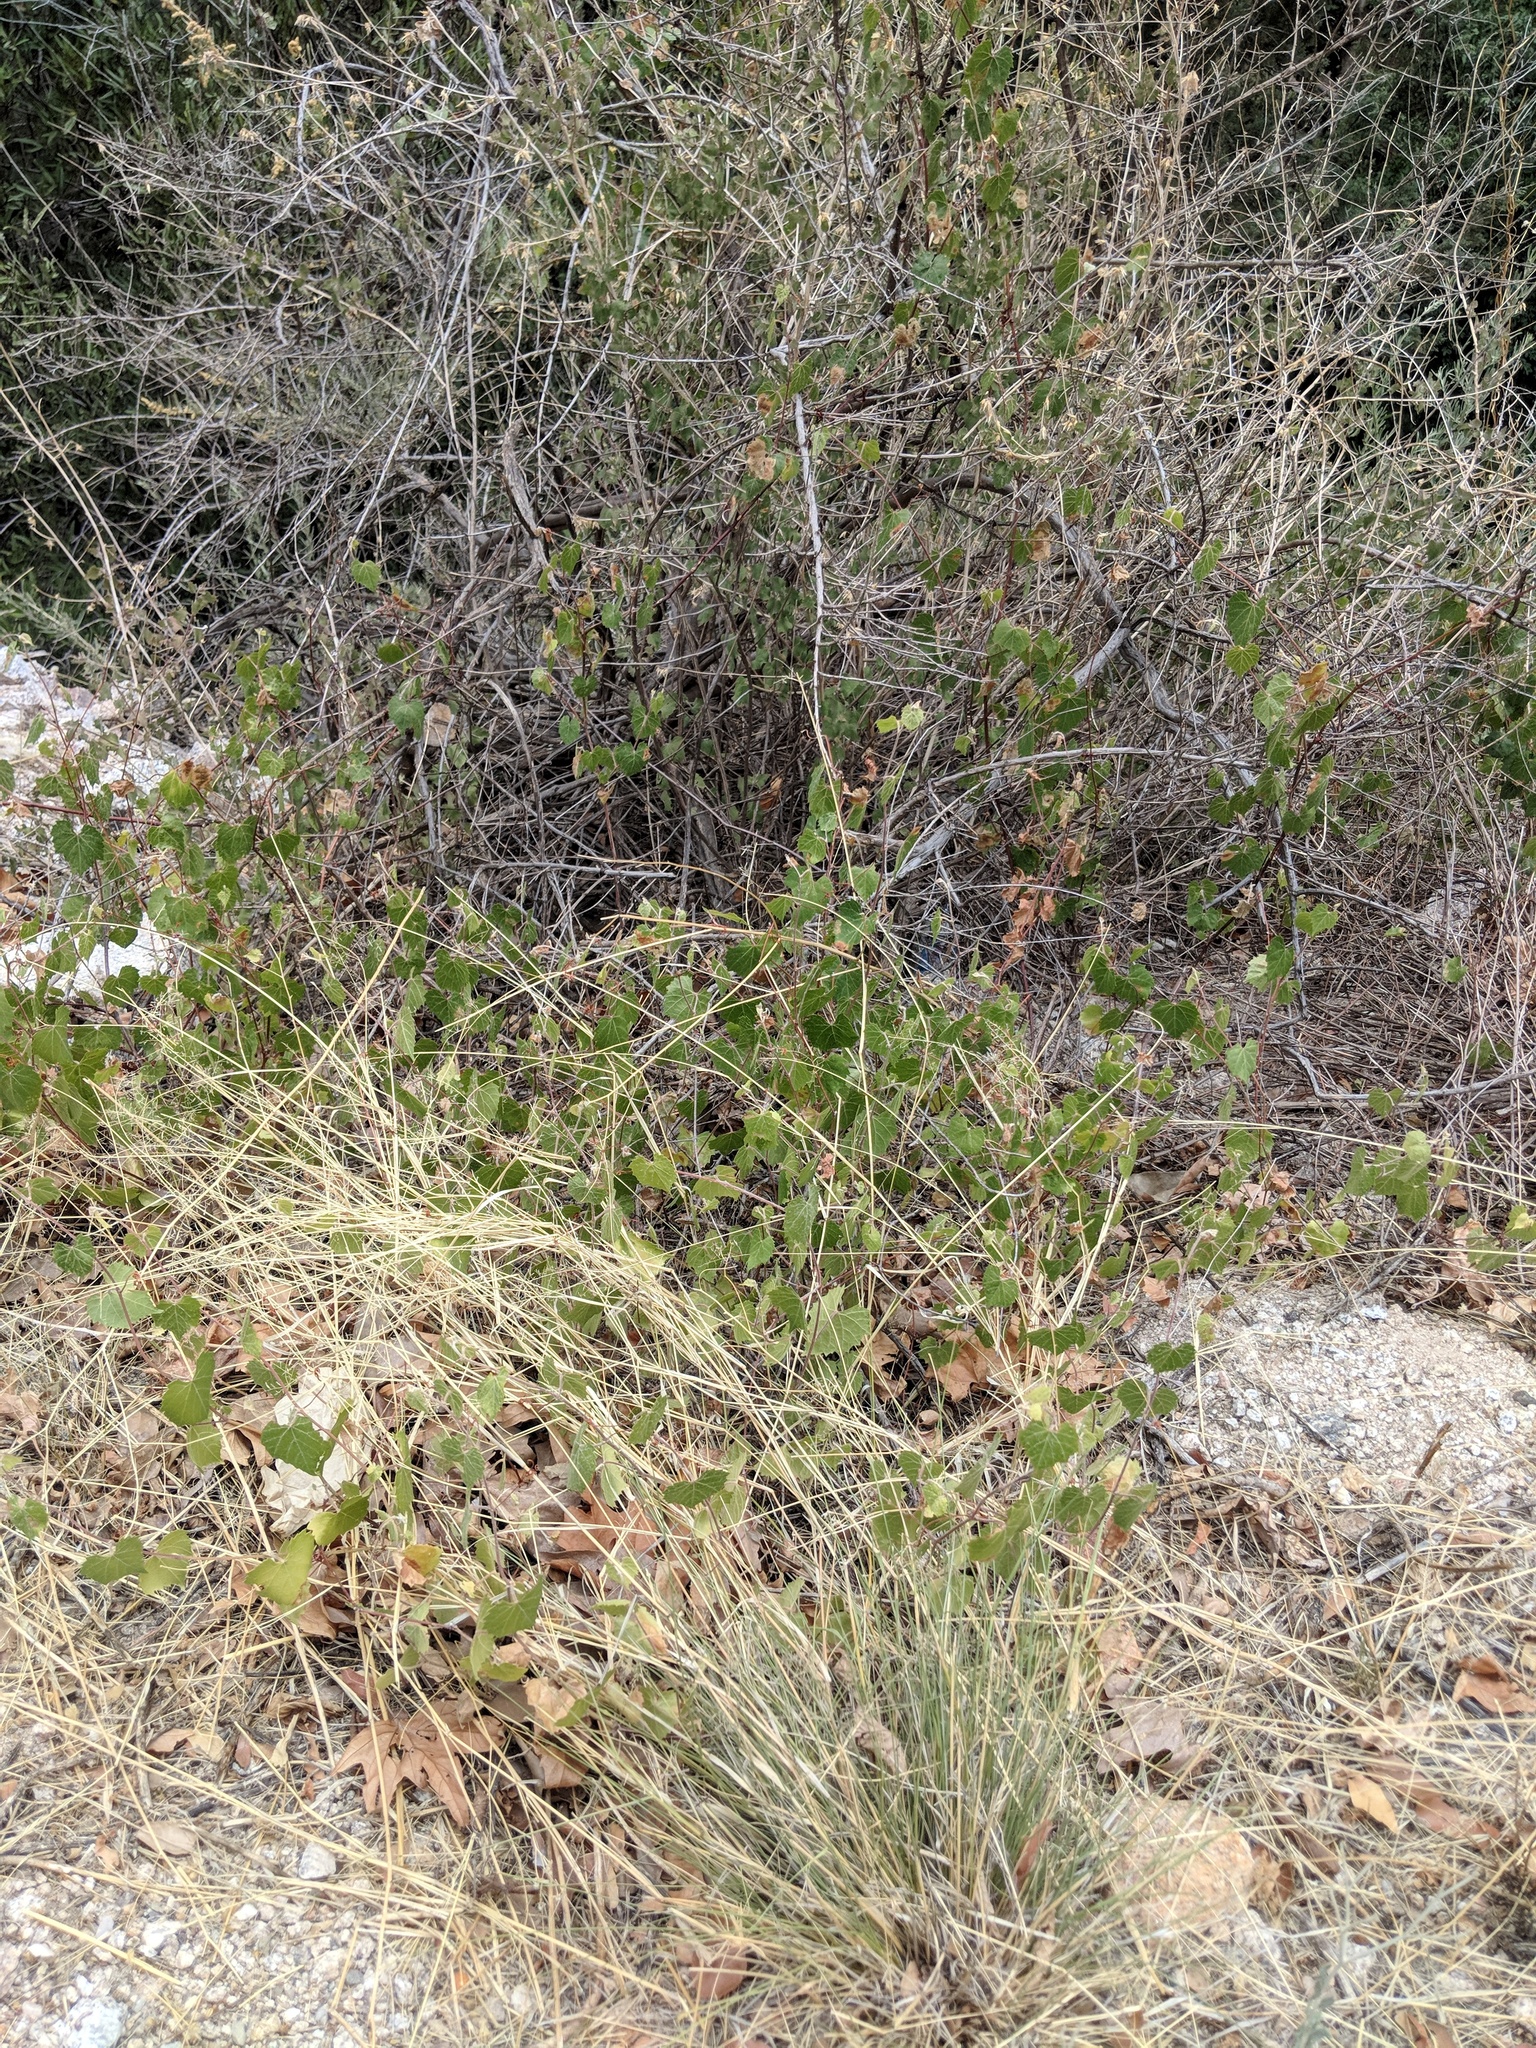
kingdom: Plantae
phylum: Tracheophyta
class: Magnoliopsida
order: Vitales
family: Vitaceae
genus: Vitis
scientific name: Vitis arizonica
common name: Canyon grape
